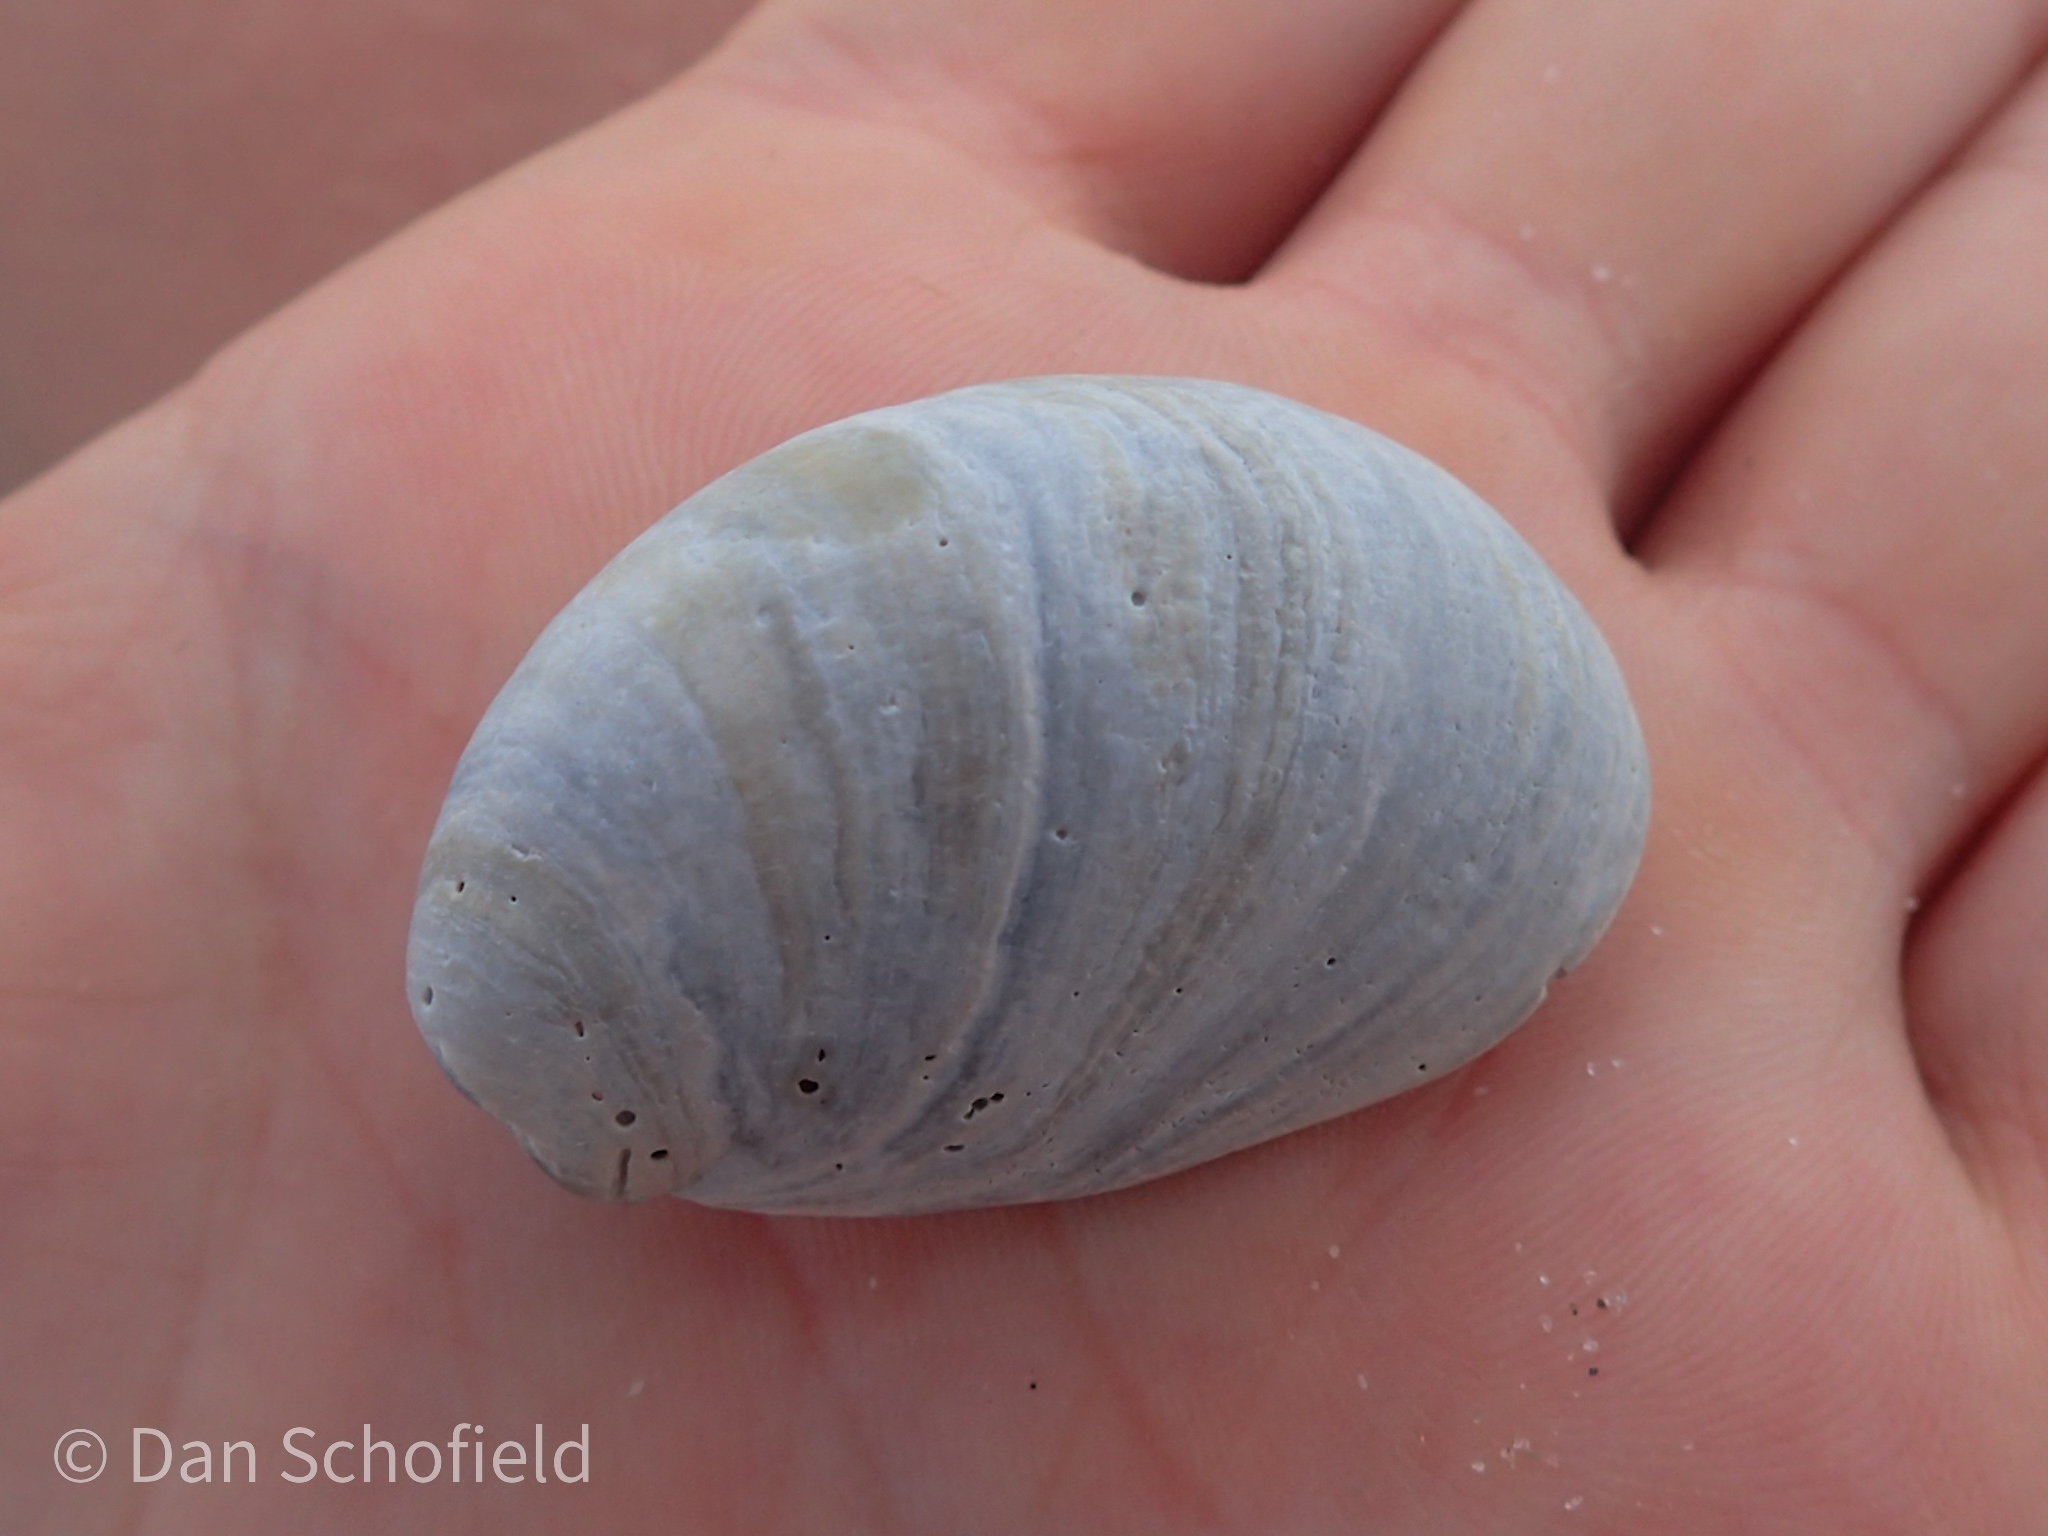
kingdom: Animalia
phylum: Mollusca
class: Gastropoda
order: Littorinimorpha
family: Calyptraeidae
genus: Crepidula
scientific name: Crepidula fornicata
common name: Slipper limpet
